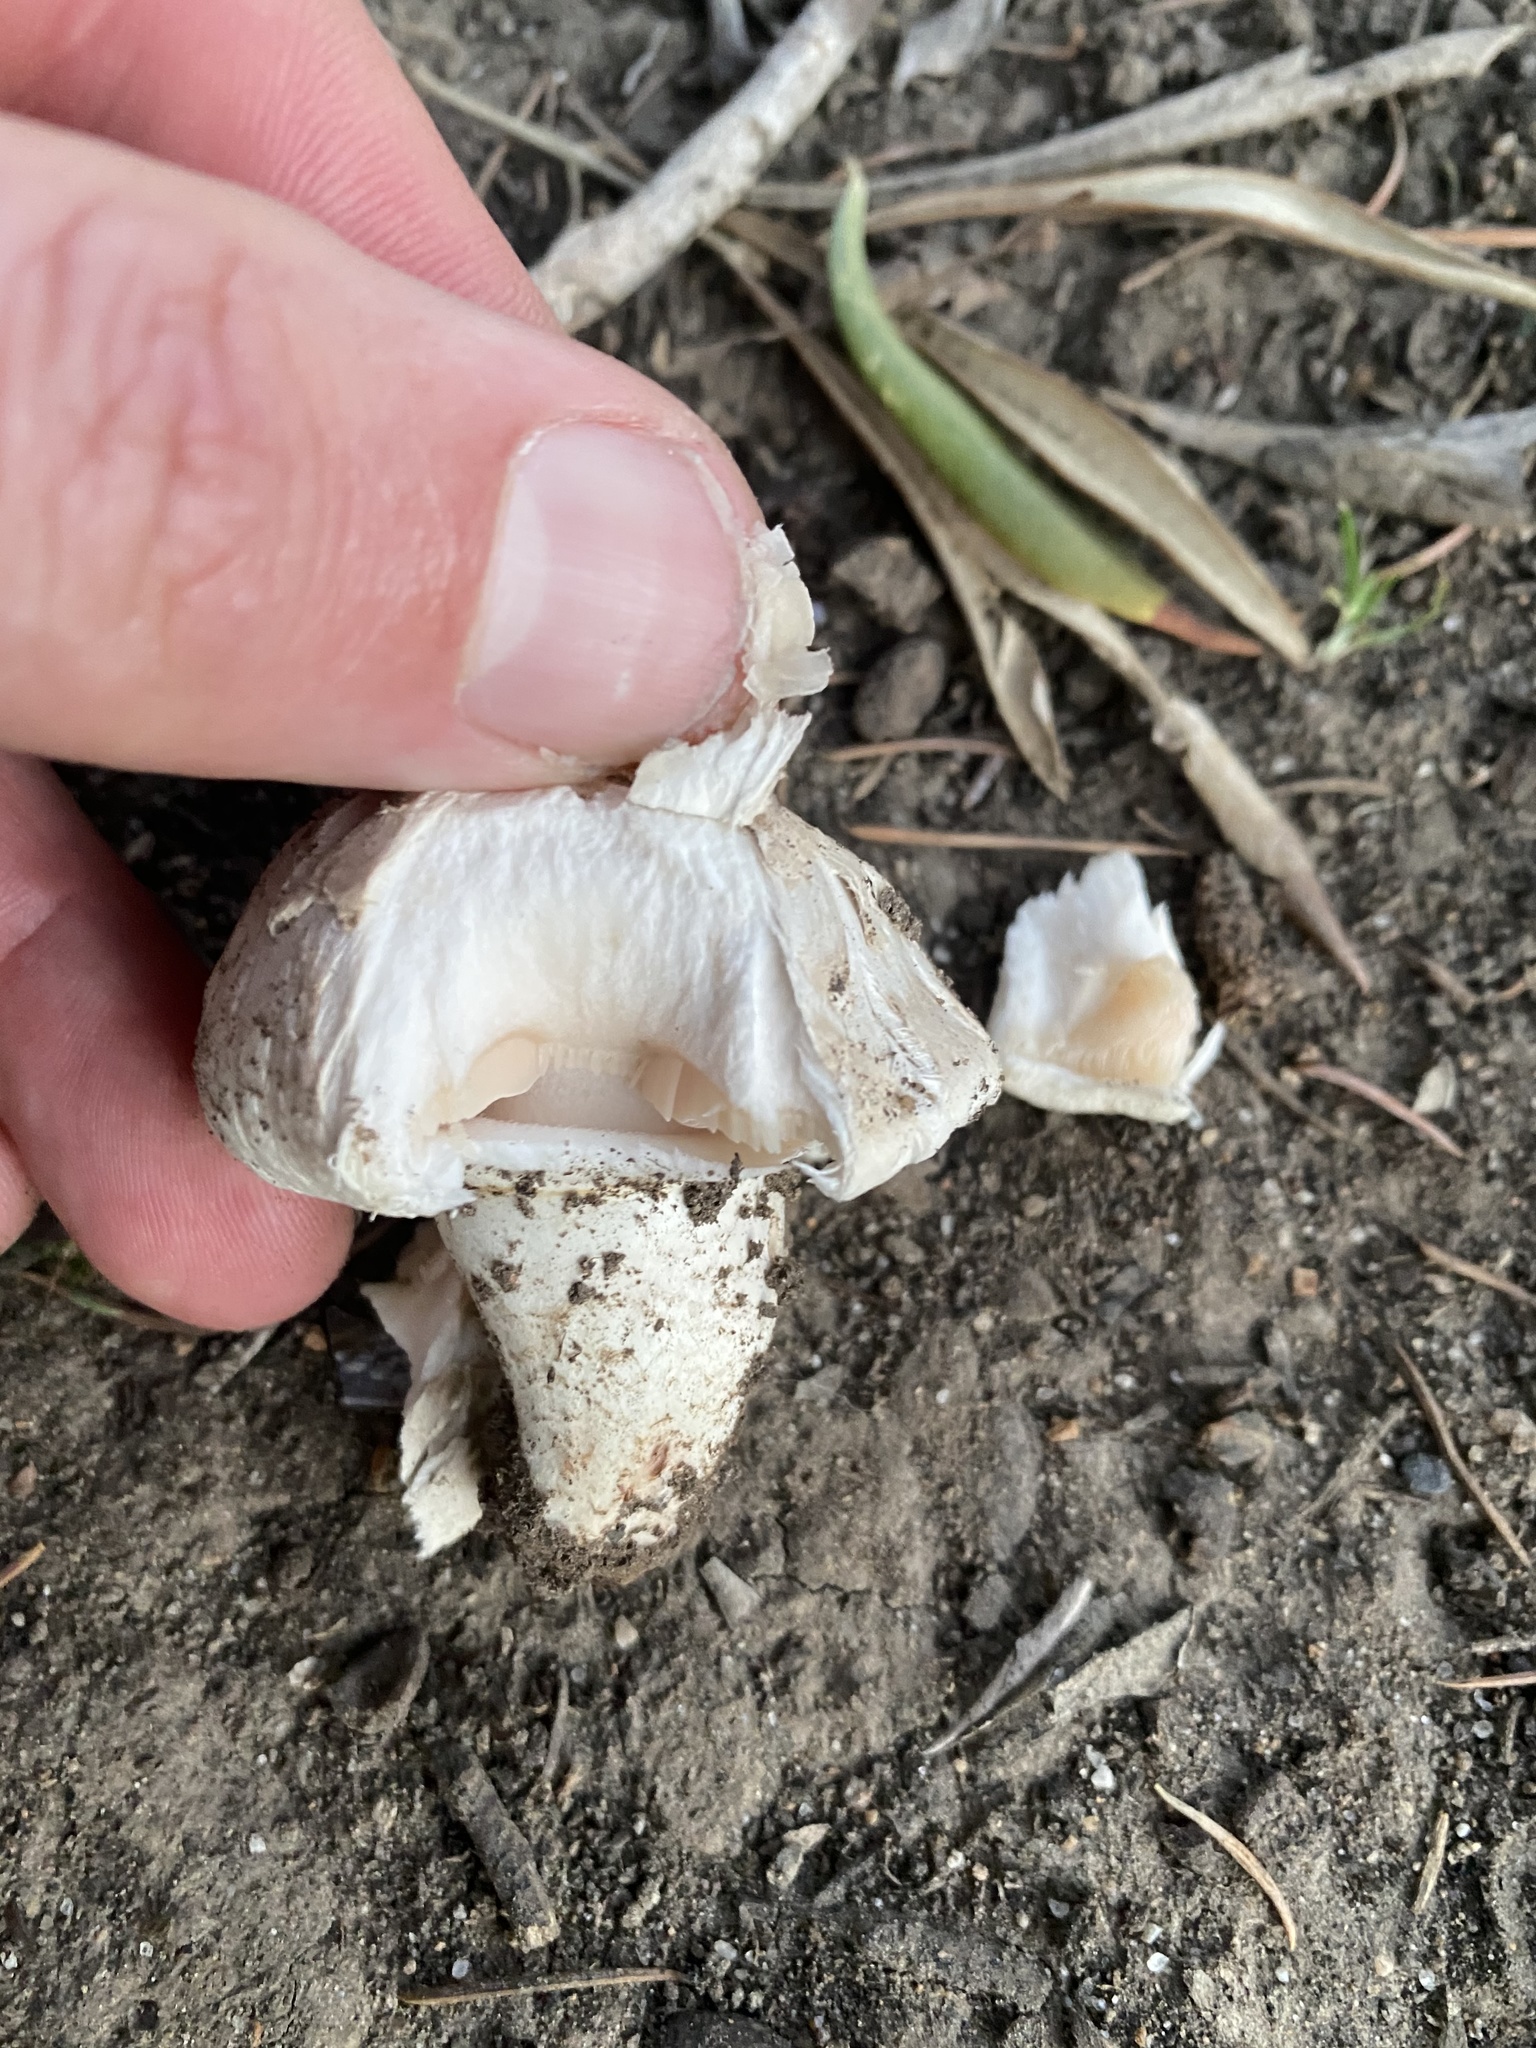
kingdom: Fungi
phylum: Basidiomycota
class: Agaricomycetes
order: Agaricales
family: Agaricaceae
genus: Agaricus
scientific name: Agaricus bitorquis
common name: Pavement mushroom
